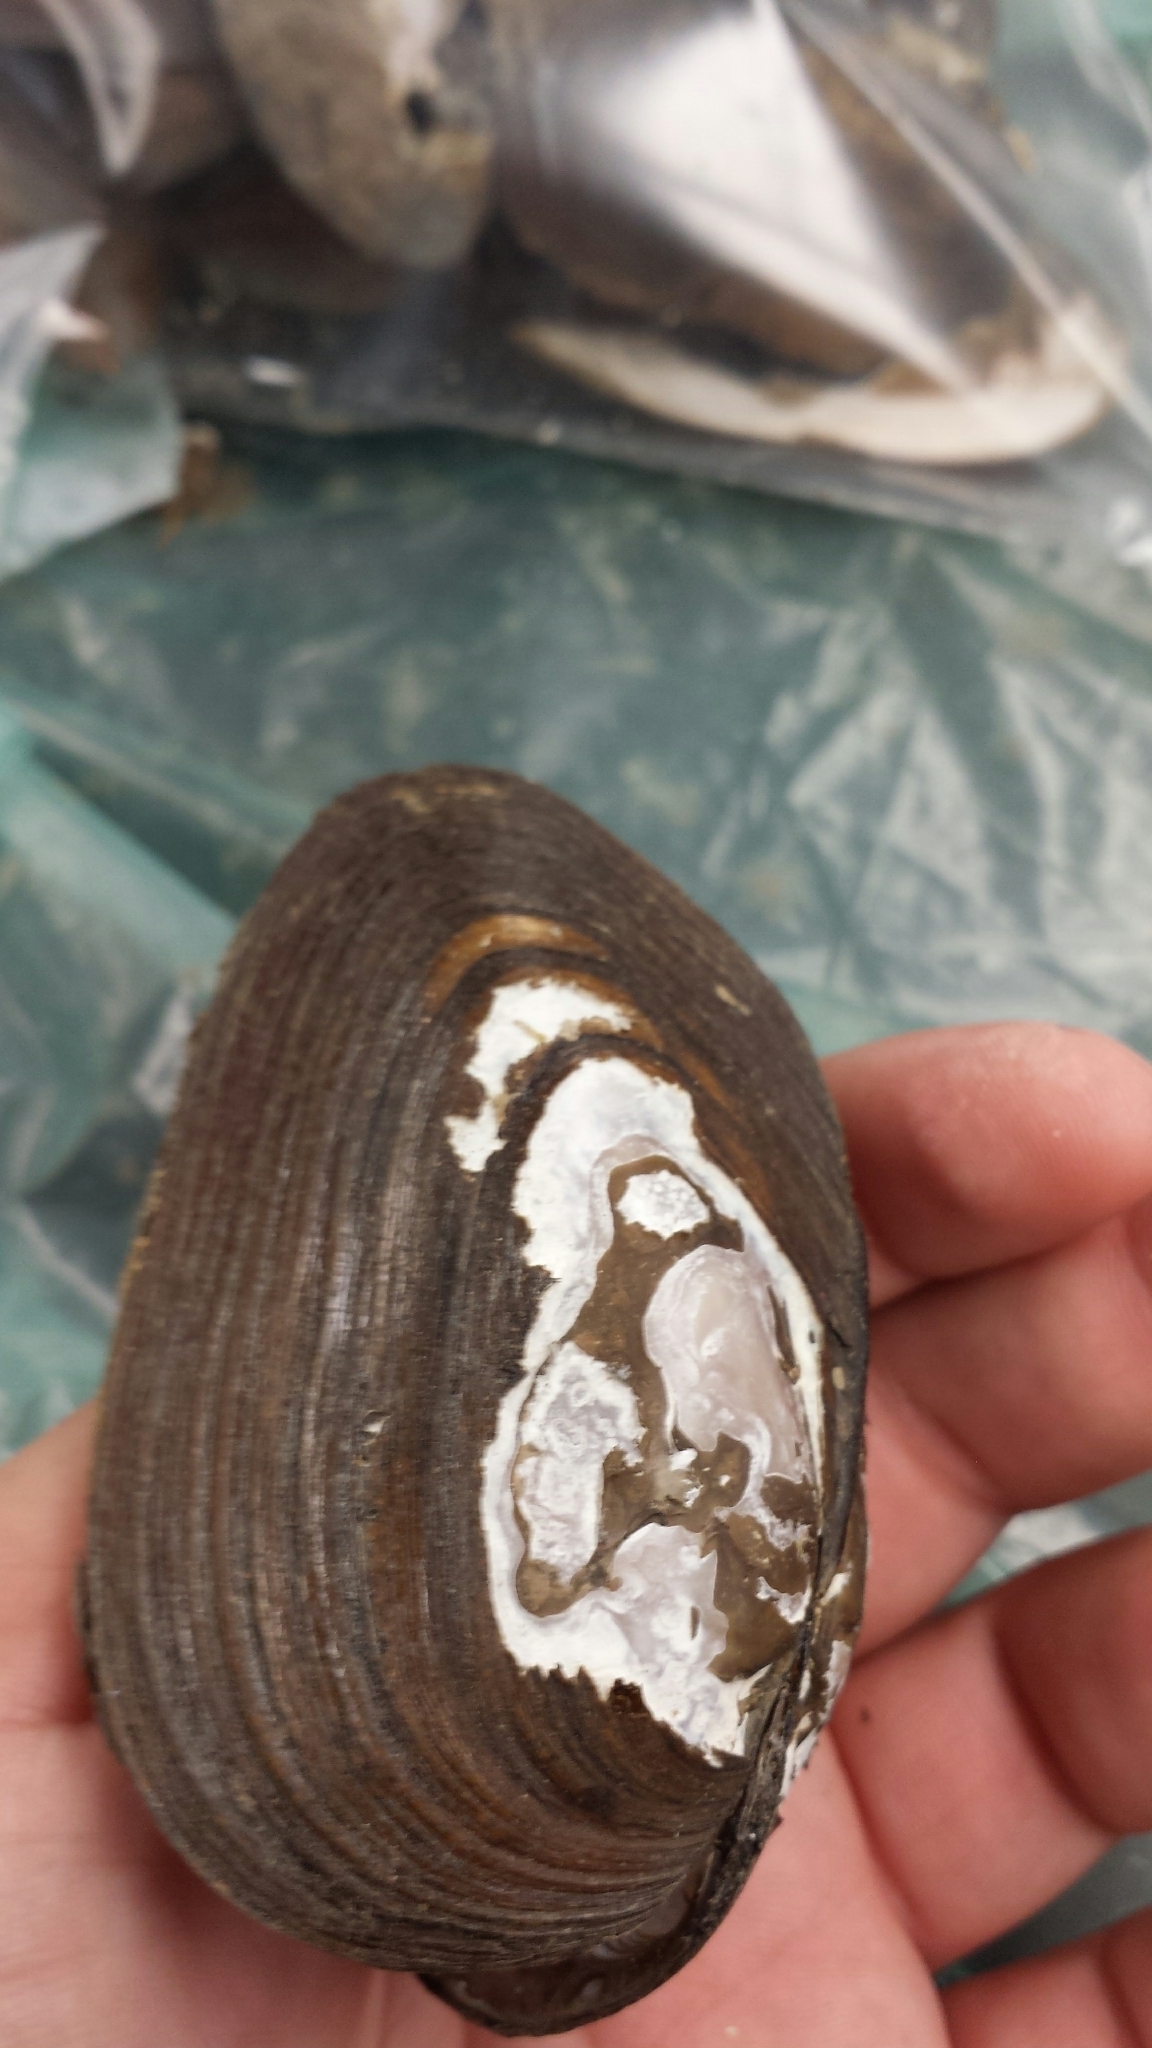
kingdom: Animalia
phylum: Mollusca
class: Bivalvia
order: Unionida
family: Unionidae
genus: Elliptio
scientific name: Elliptio complanata
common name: Eastern elliptio
